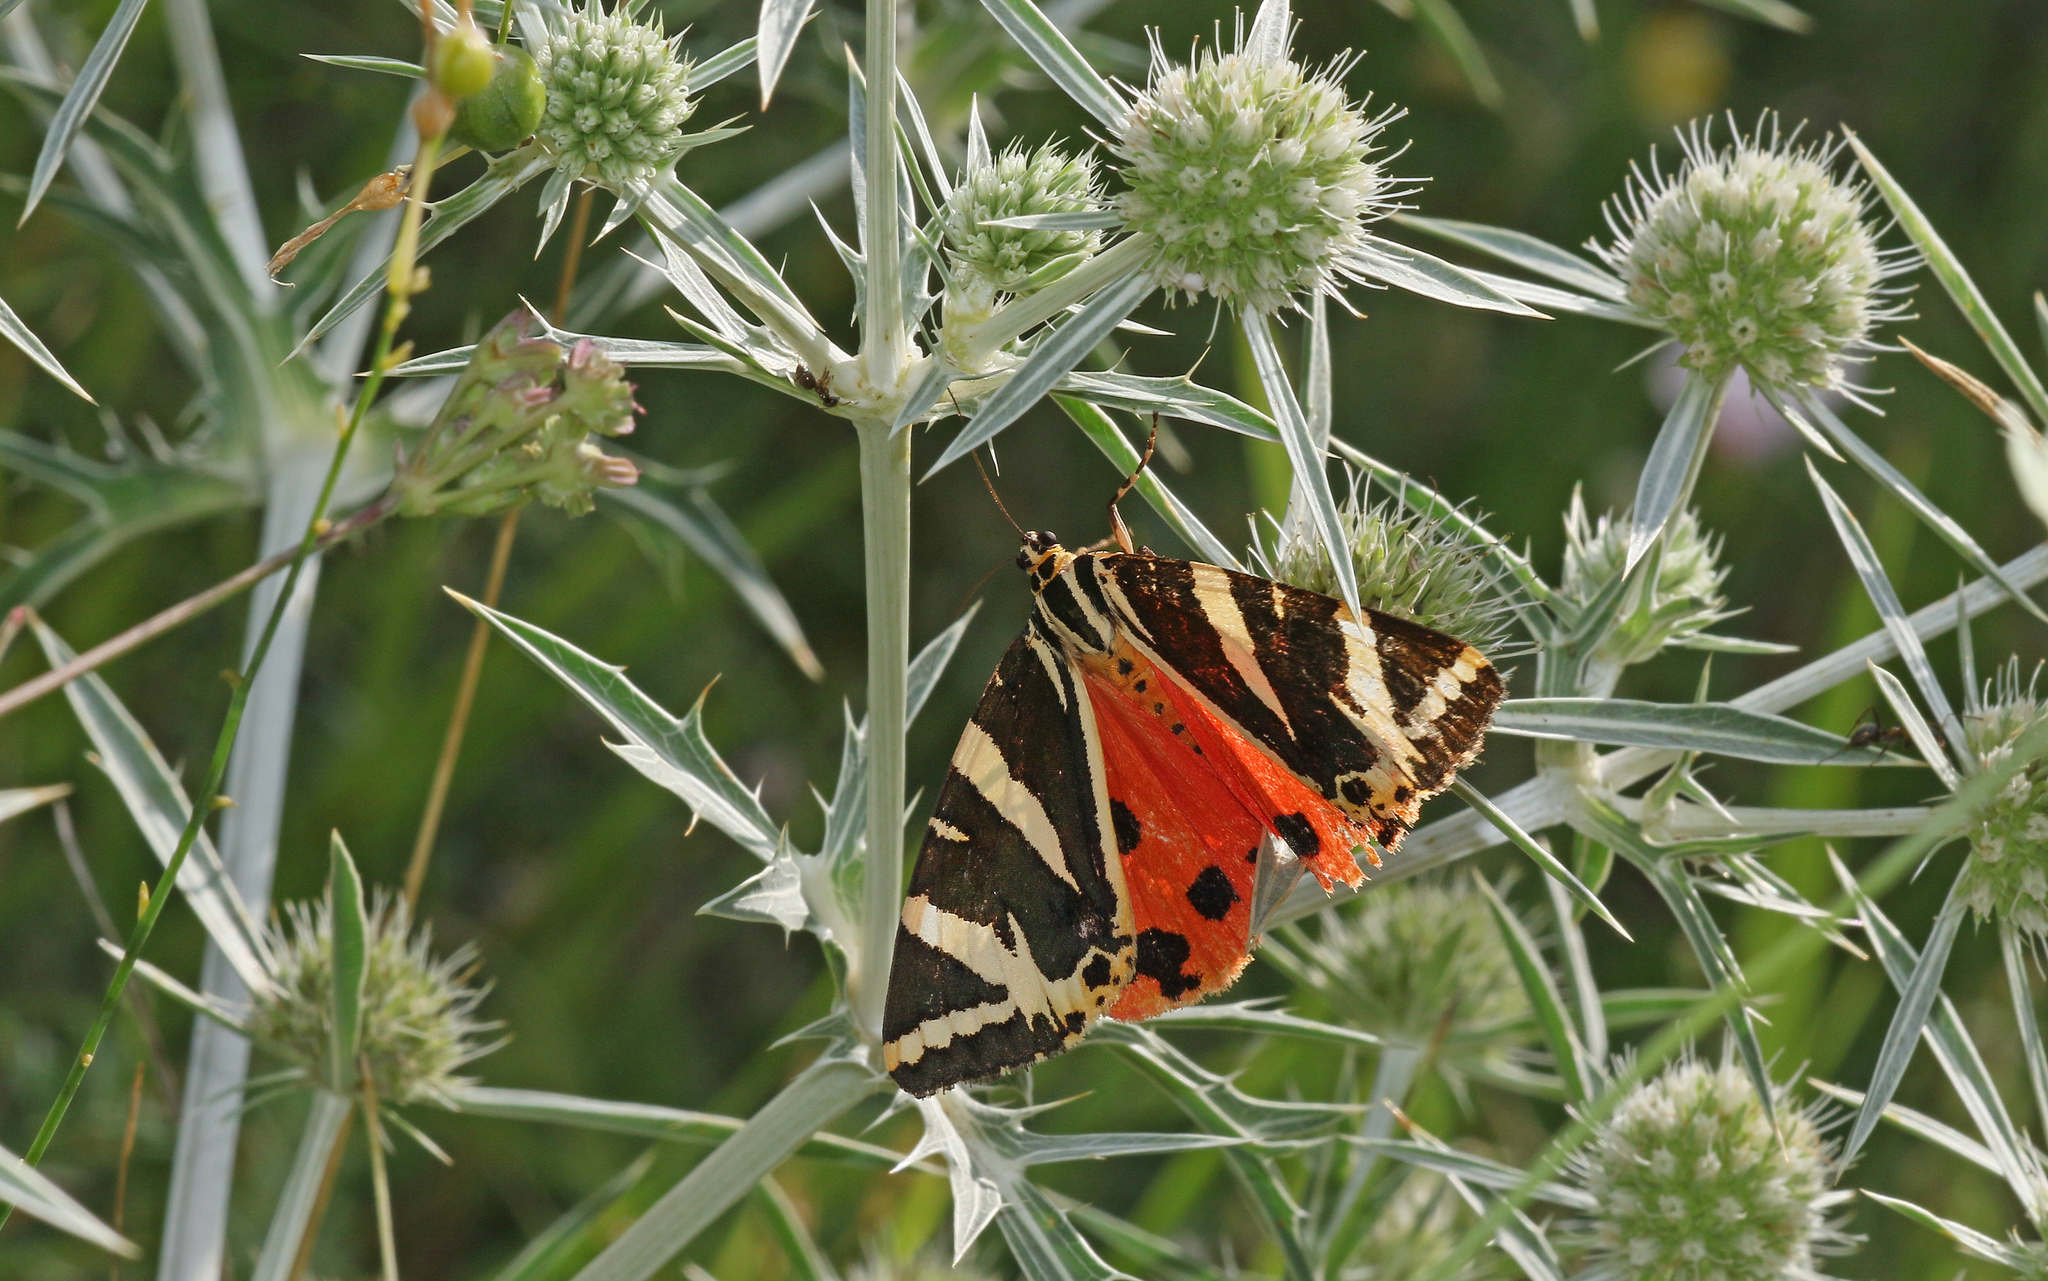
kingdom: Animalia
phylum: Arthropoda
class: Insecta
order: Lepidoptera
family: Erebidae
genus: Euplagia
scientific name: Euplagia quadripunctaria
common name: Jersey tiger
